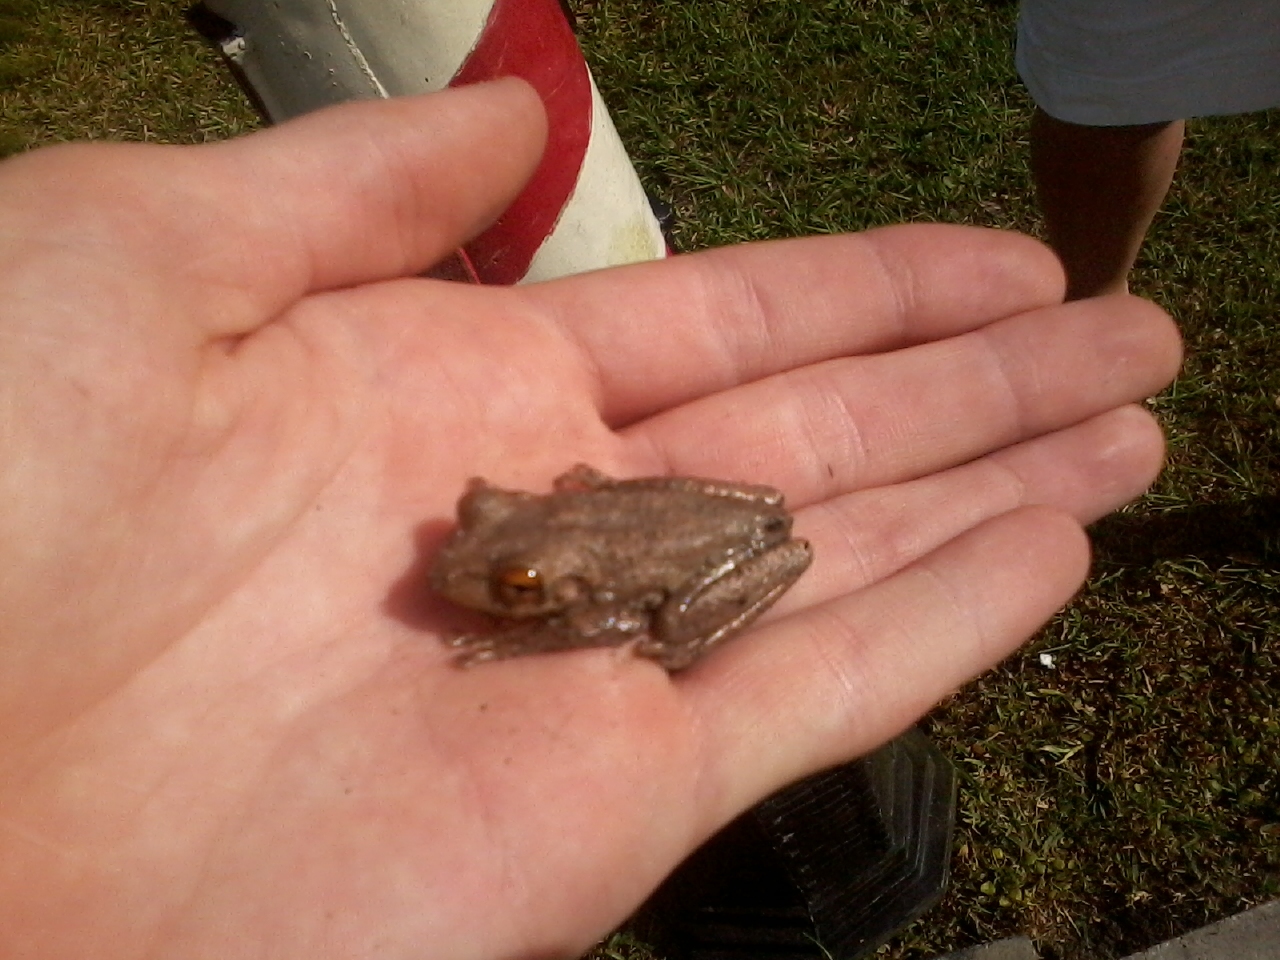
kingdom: Animalia
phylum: Chordata
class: Amphibia
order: Anura
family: Hylidae
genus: Osteopilus
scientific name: Osteopilus septentrionalis
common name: Cuban treefrog
